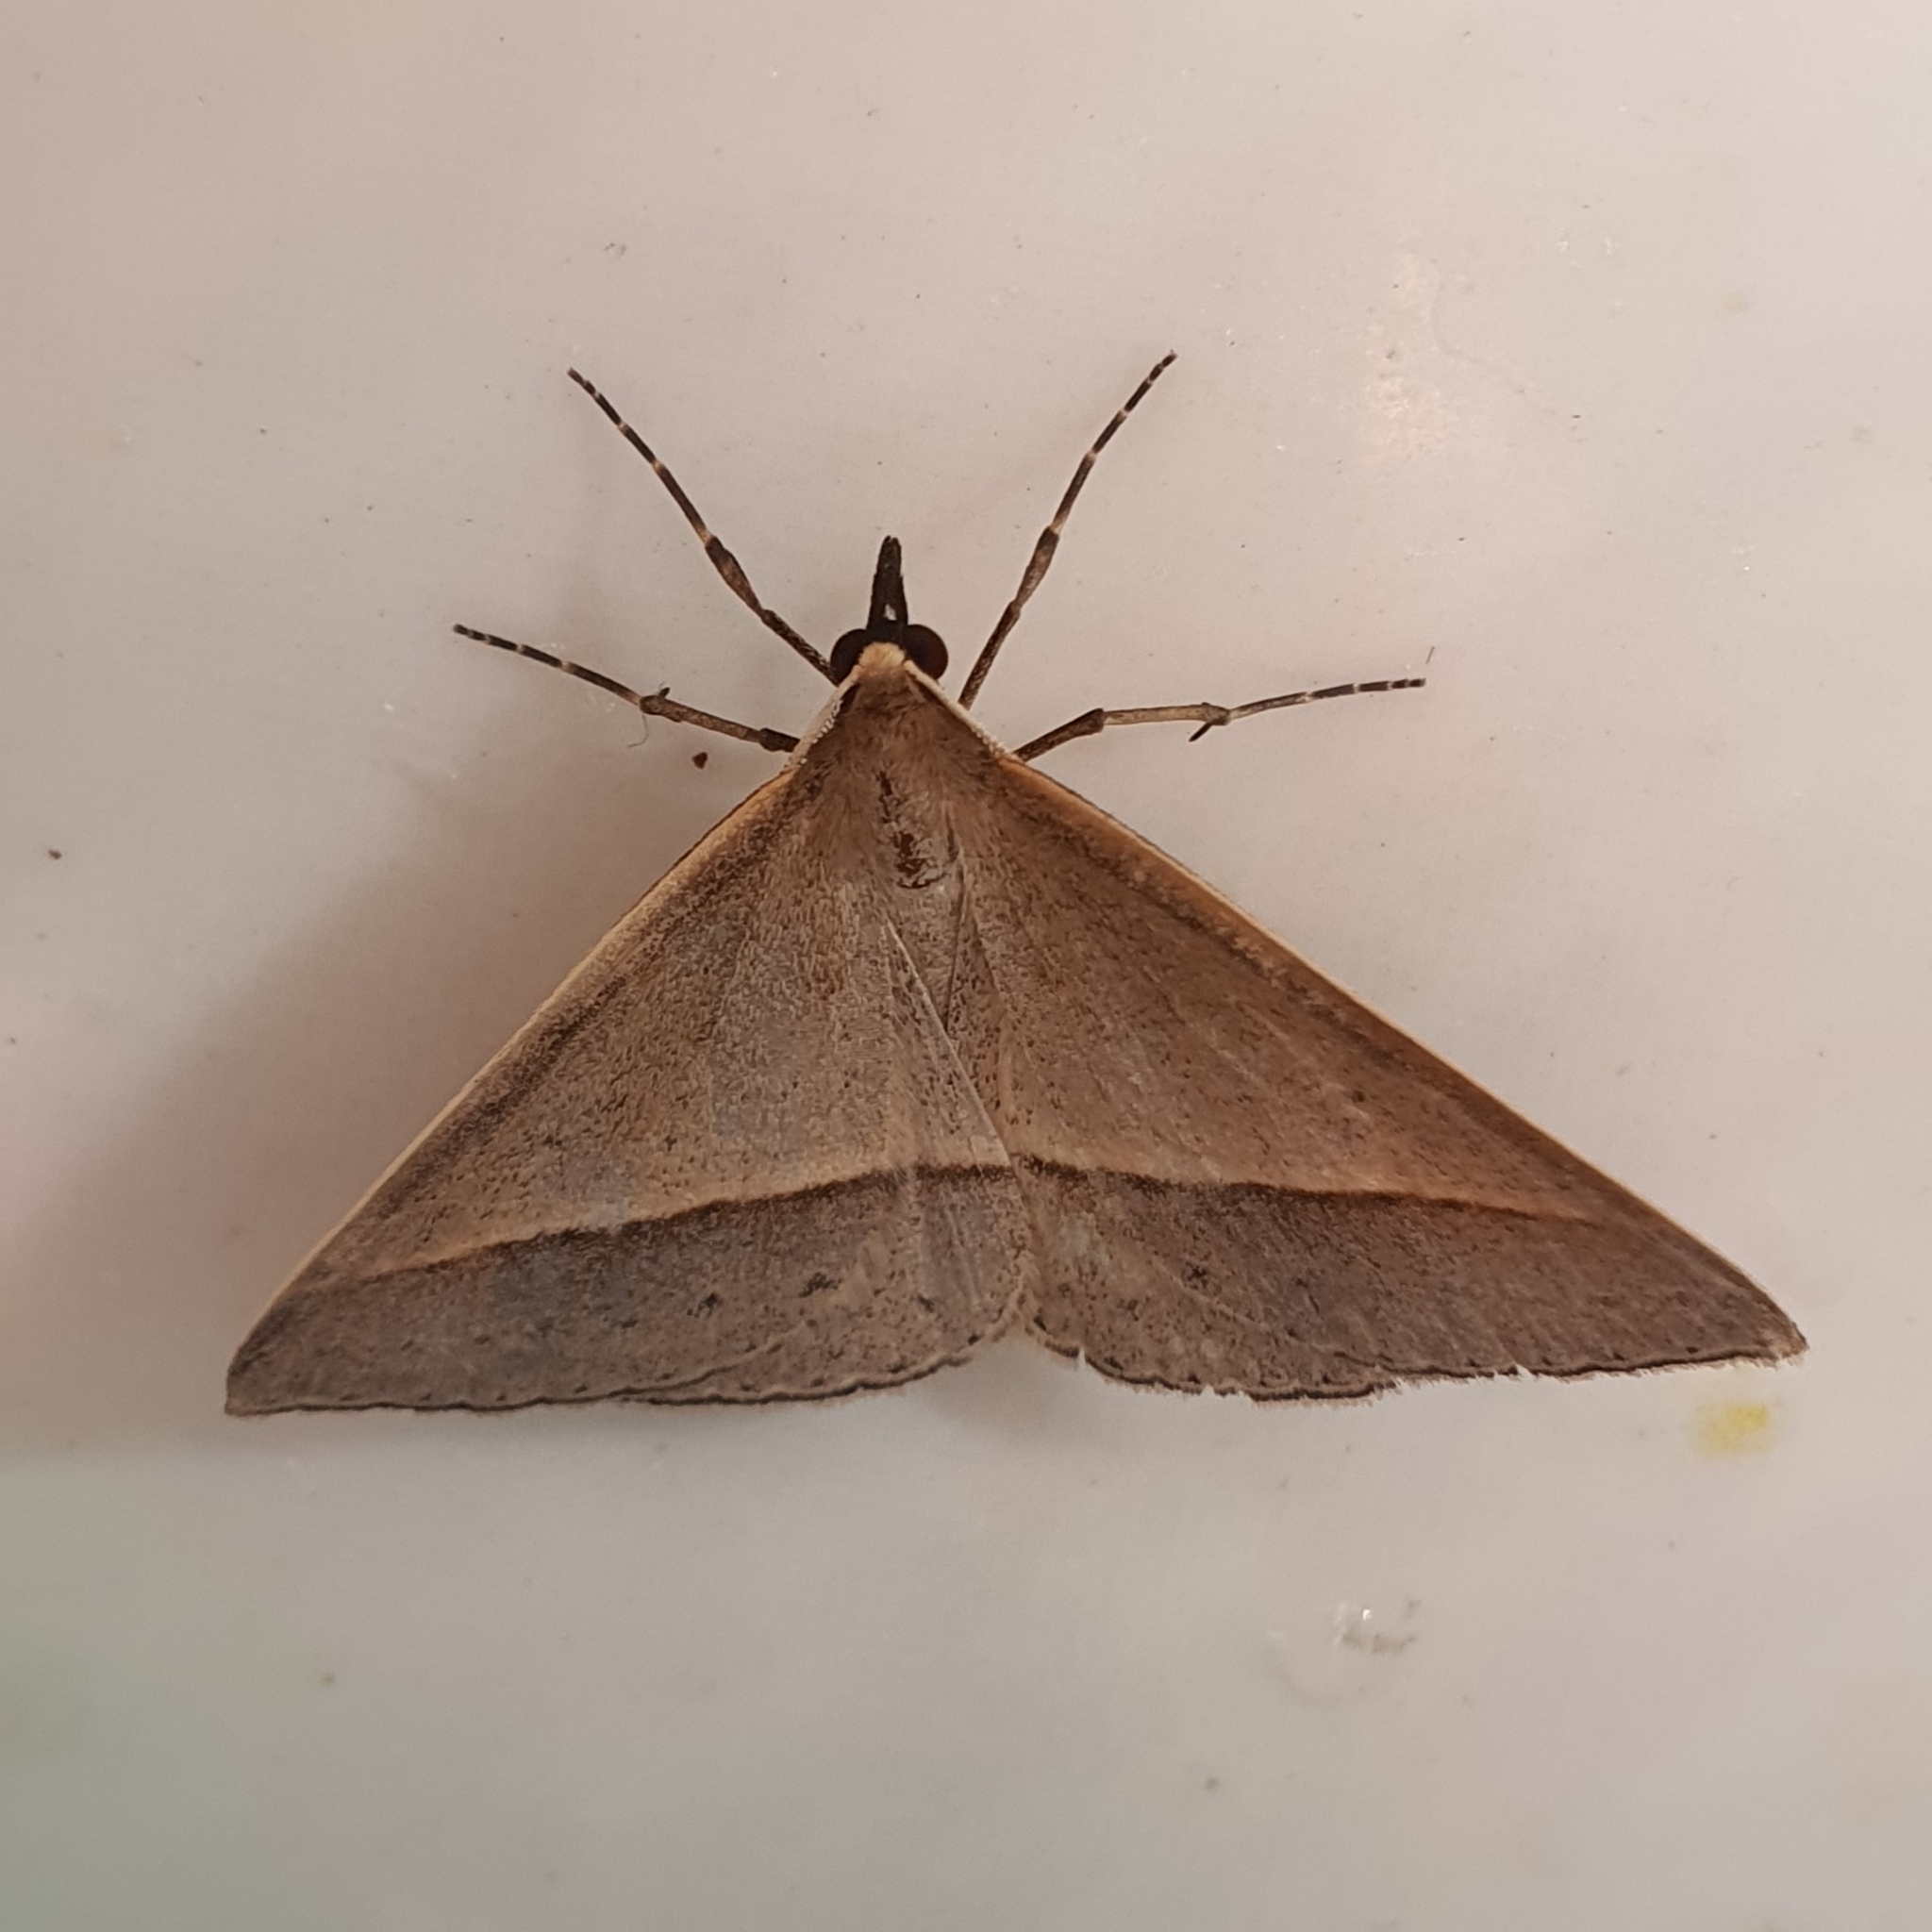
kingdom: Animalia
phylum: Arthropoda
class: Insecta
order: Lepidoptera
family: Geometridae
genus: Epidesmia
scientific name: Epidesmia tryxaria
